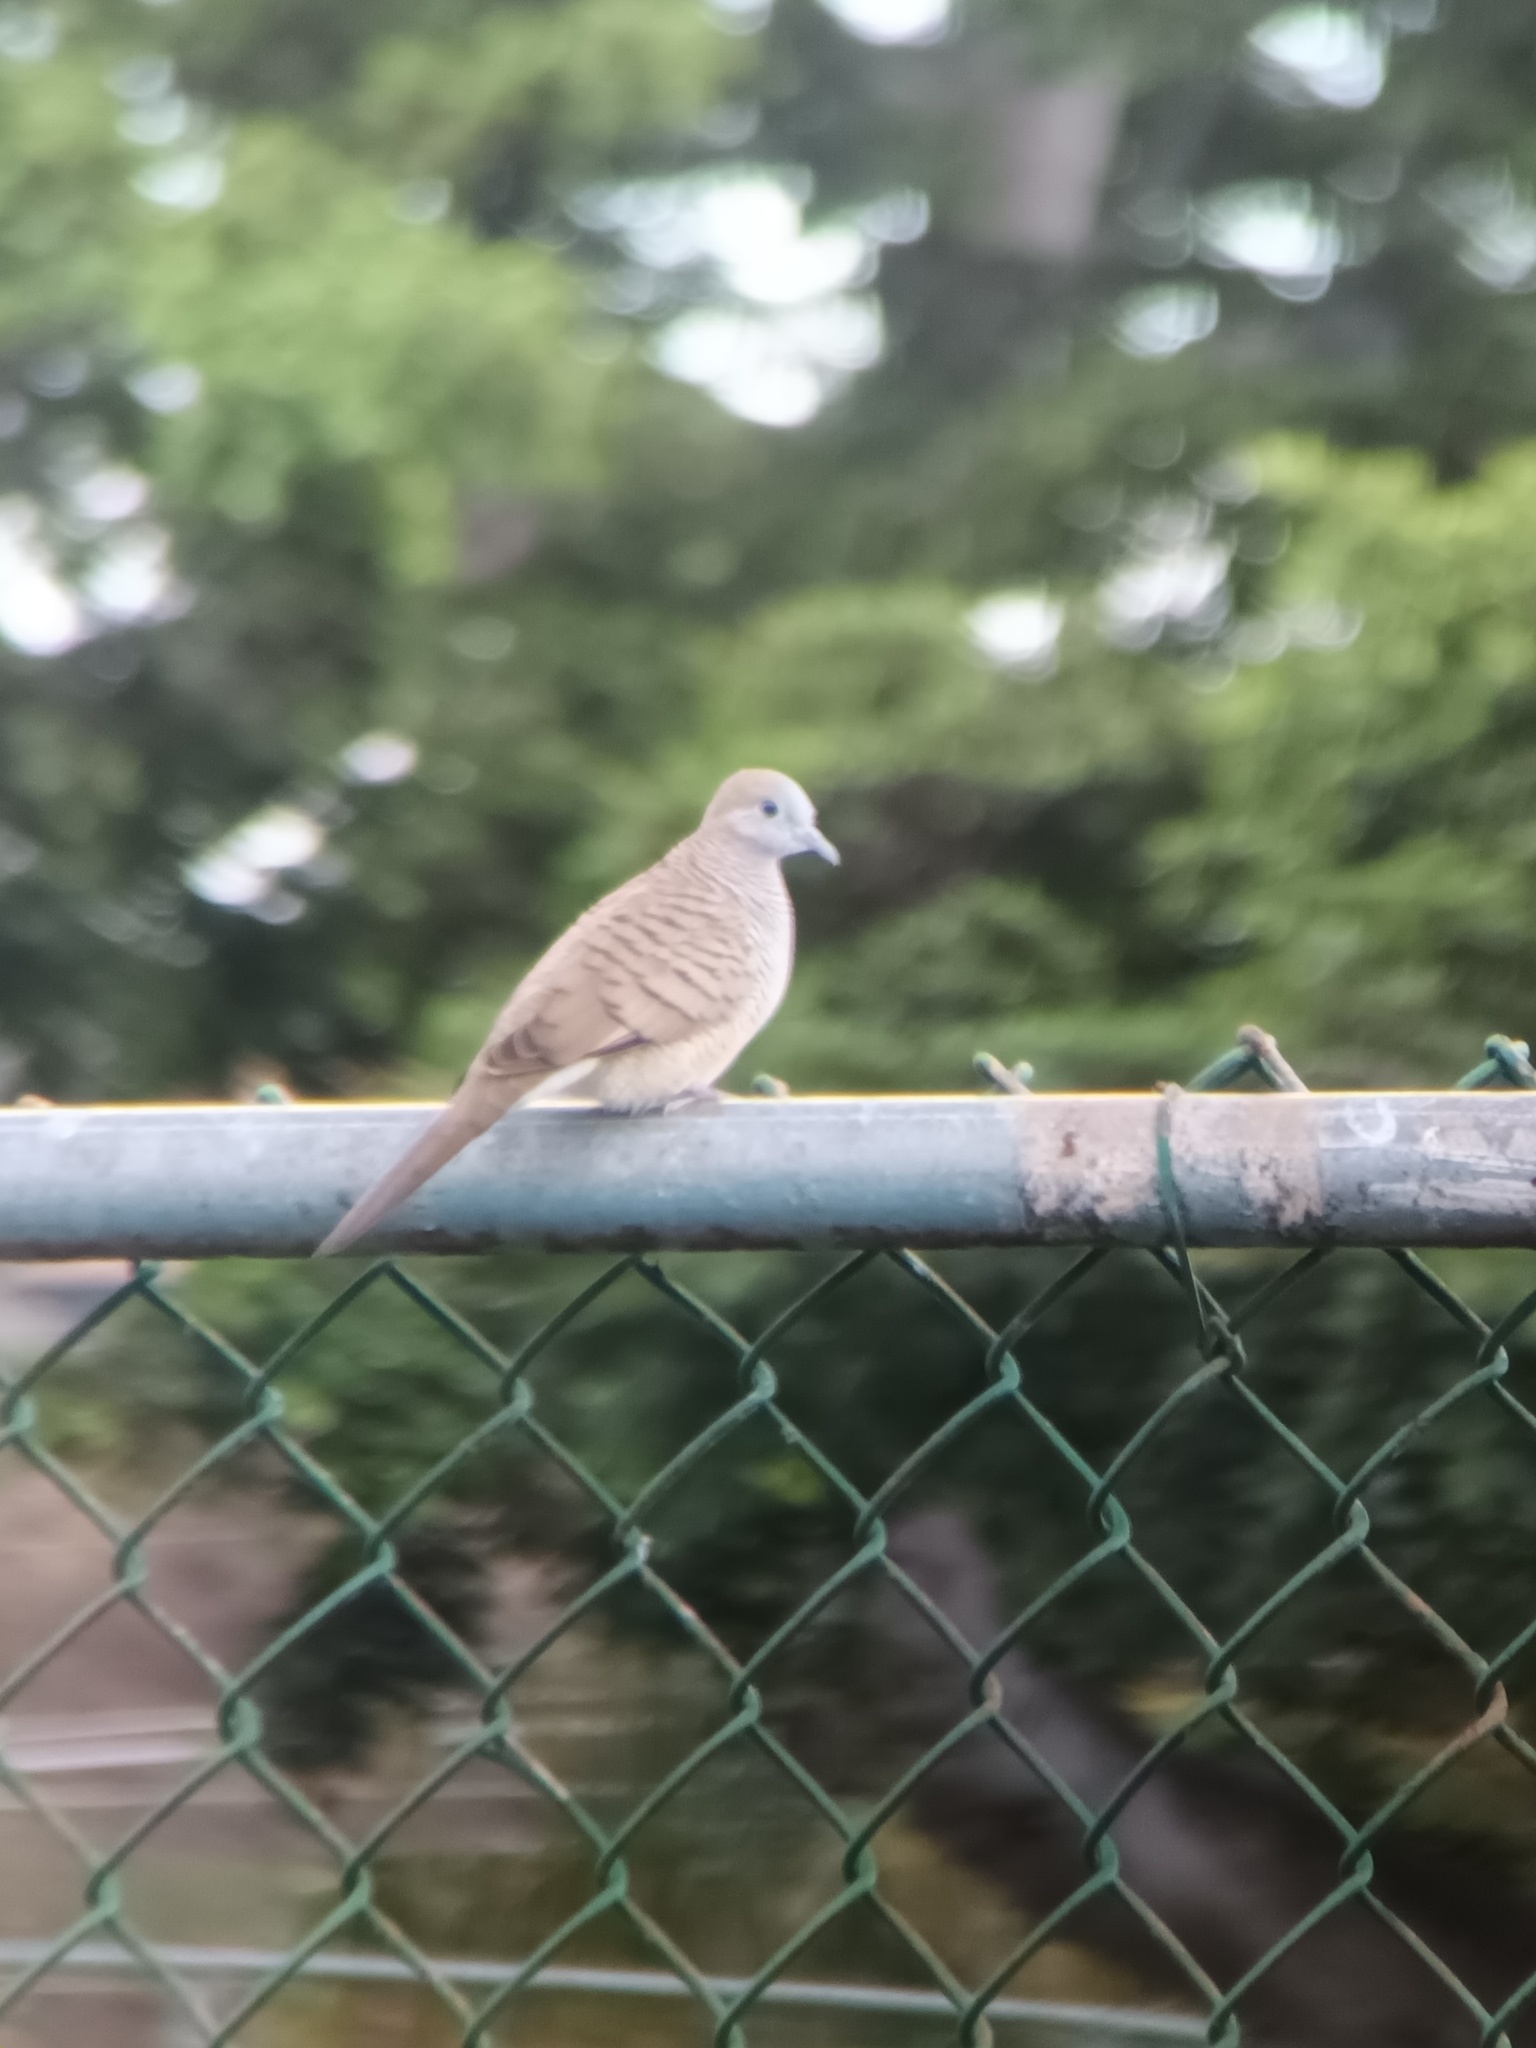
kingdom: Animalia
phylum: Chordata
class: Aves
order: Columbiformes
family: Columbidae
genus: Geopelia
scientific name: Geopelia striata
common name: Zebra dove
